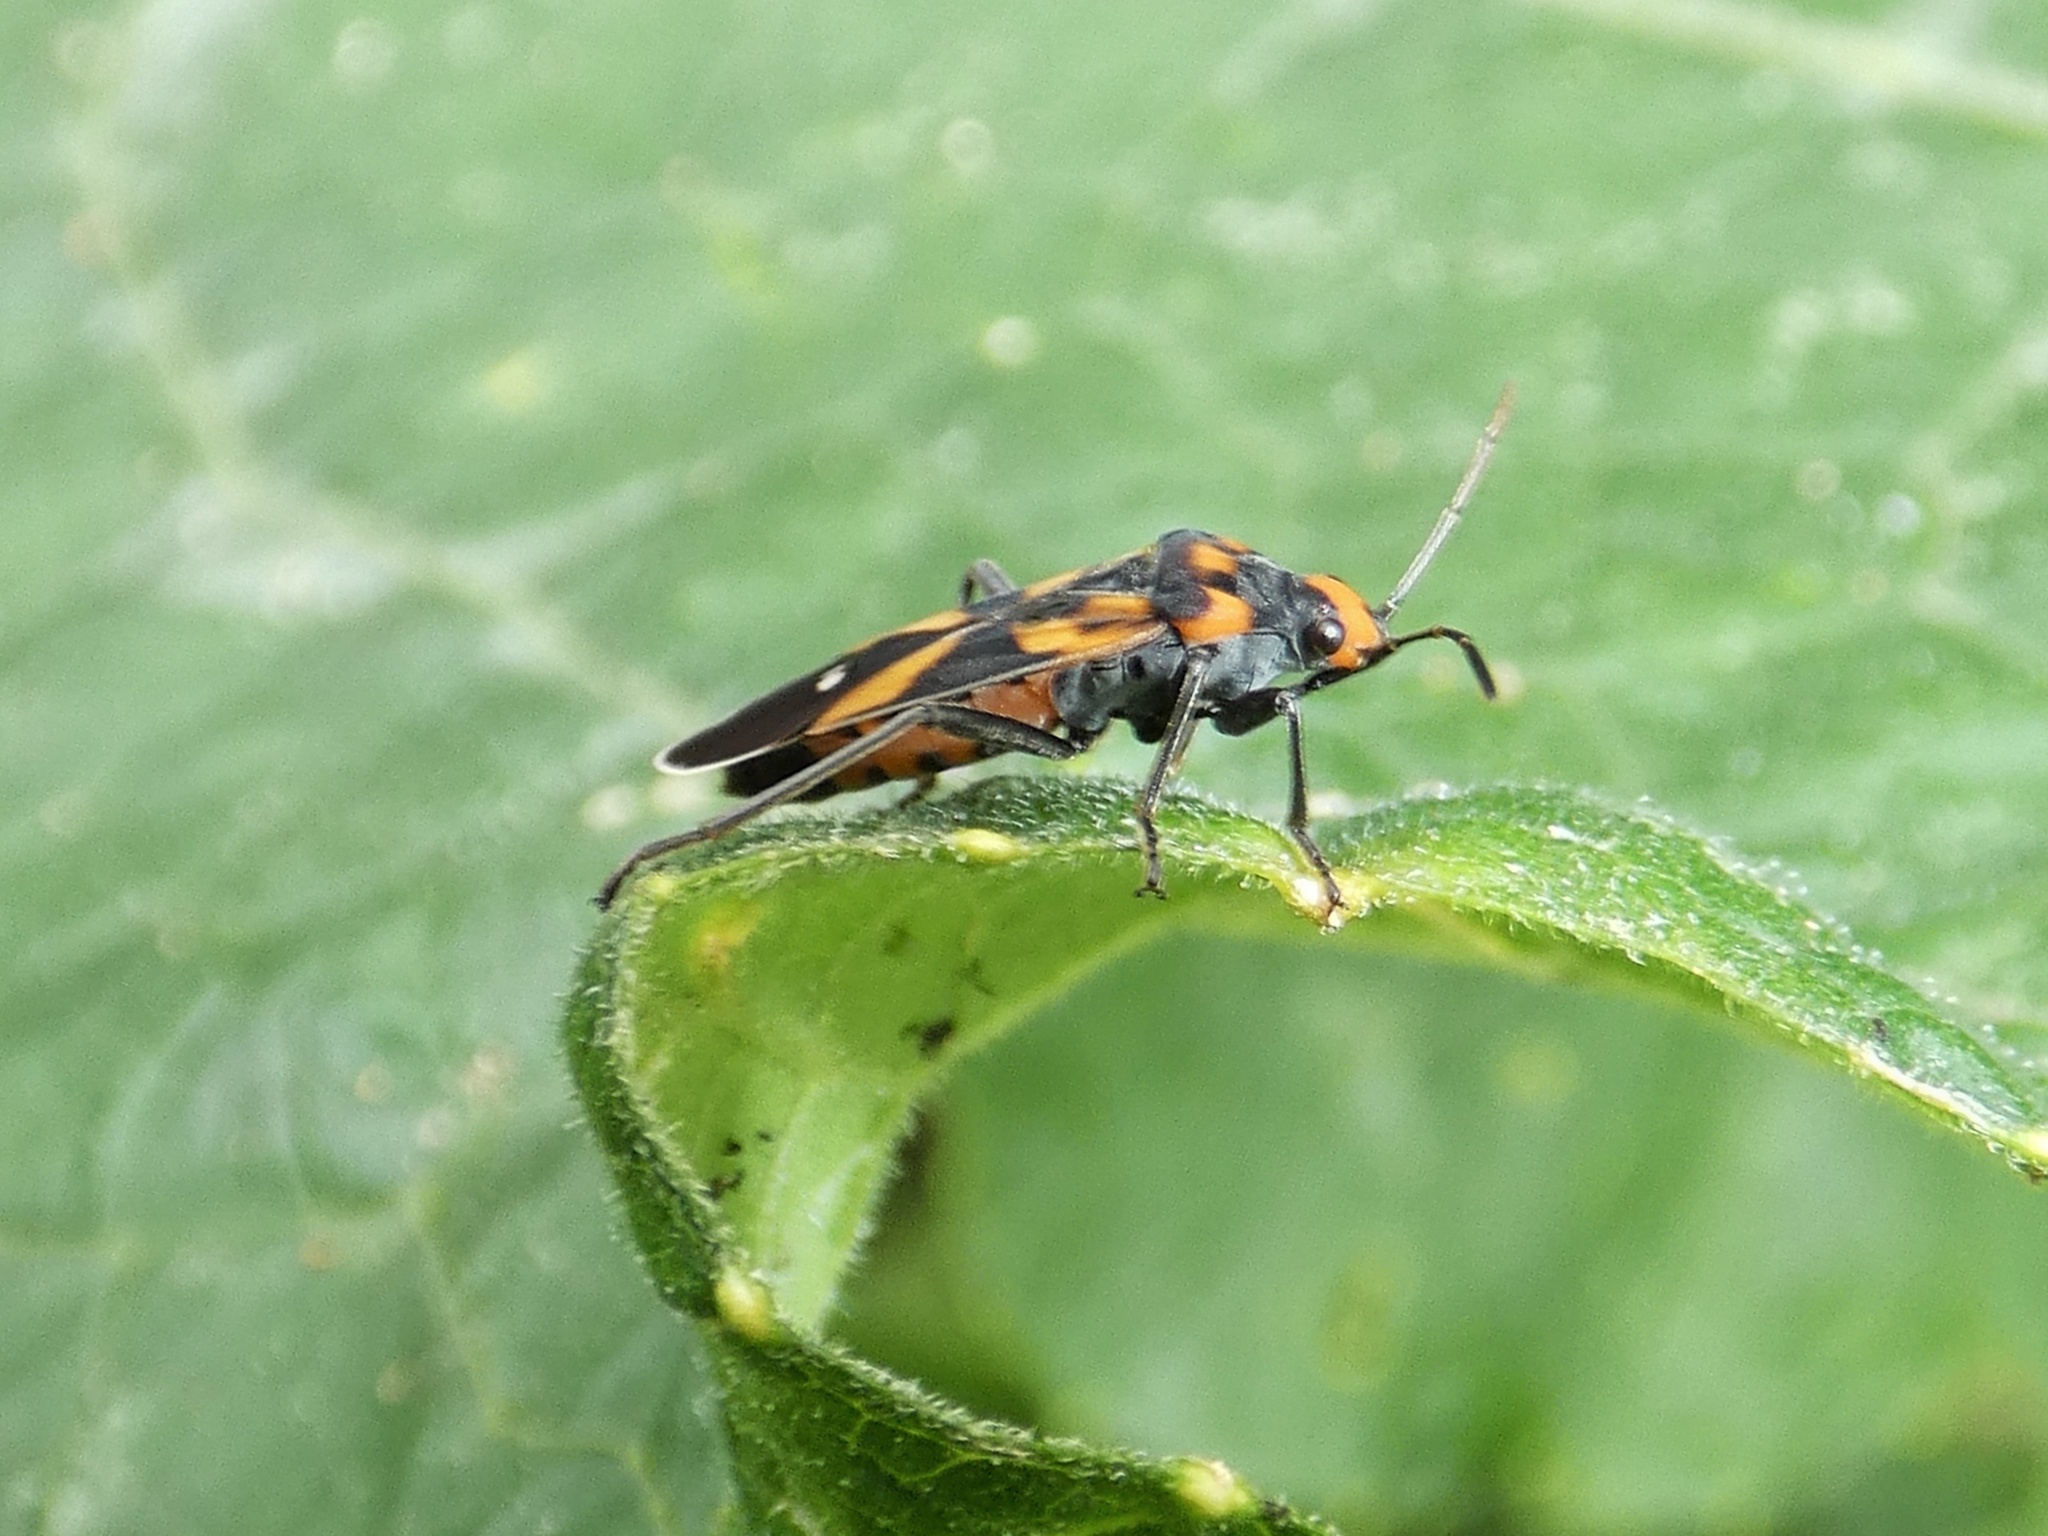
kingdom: Animalia
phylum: Arthropoda
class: Insecta
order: Hemiptera
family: Lygaeidae
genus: Lygaeus
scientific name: Lygaeus argutus
